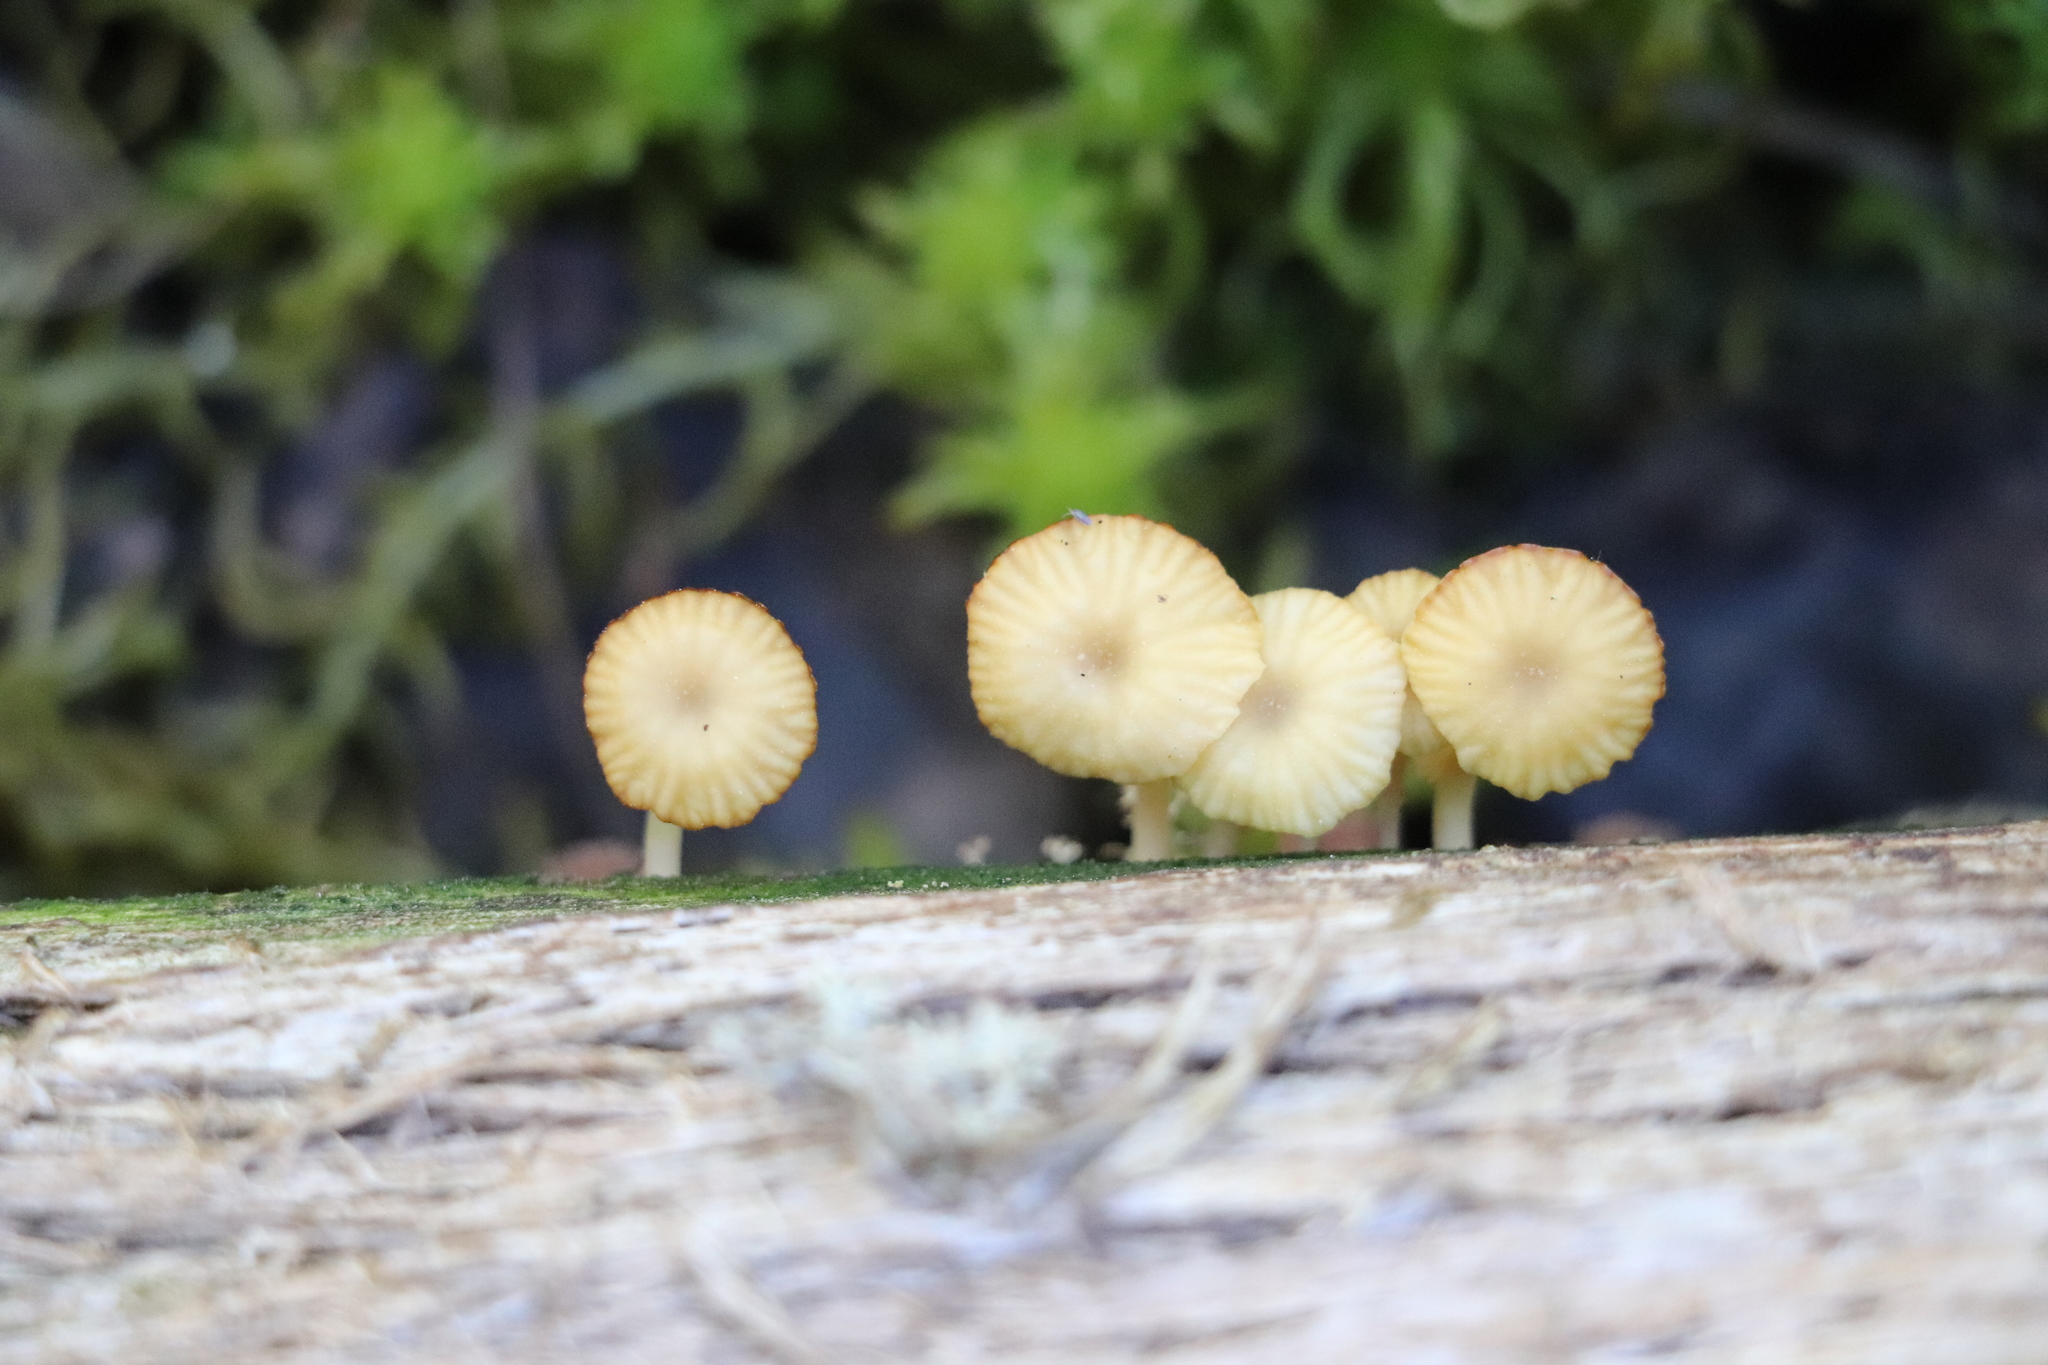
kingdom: Fungi
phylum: Basidiomycota
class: Agaricomycetes
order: Agaricales
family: Hygrophoraceae
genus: Lichenomphalia
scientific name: Lichenomphalia
